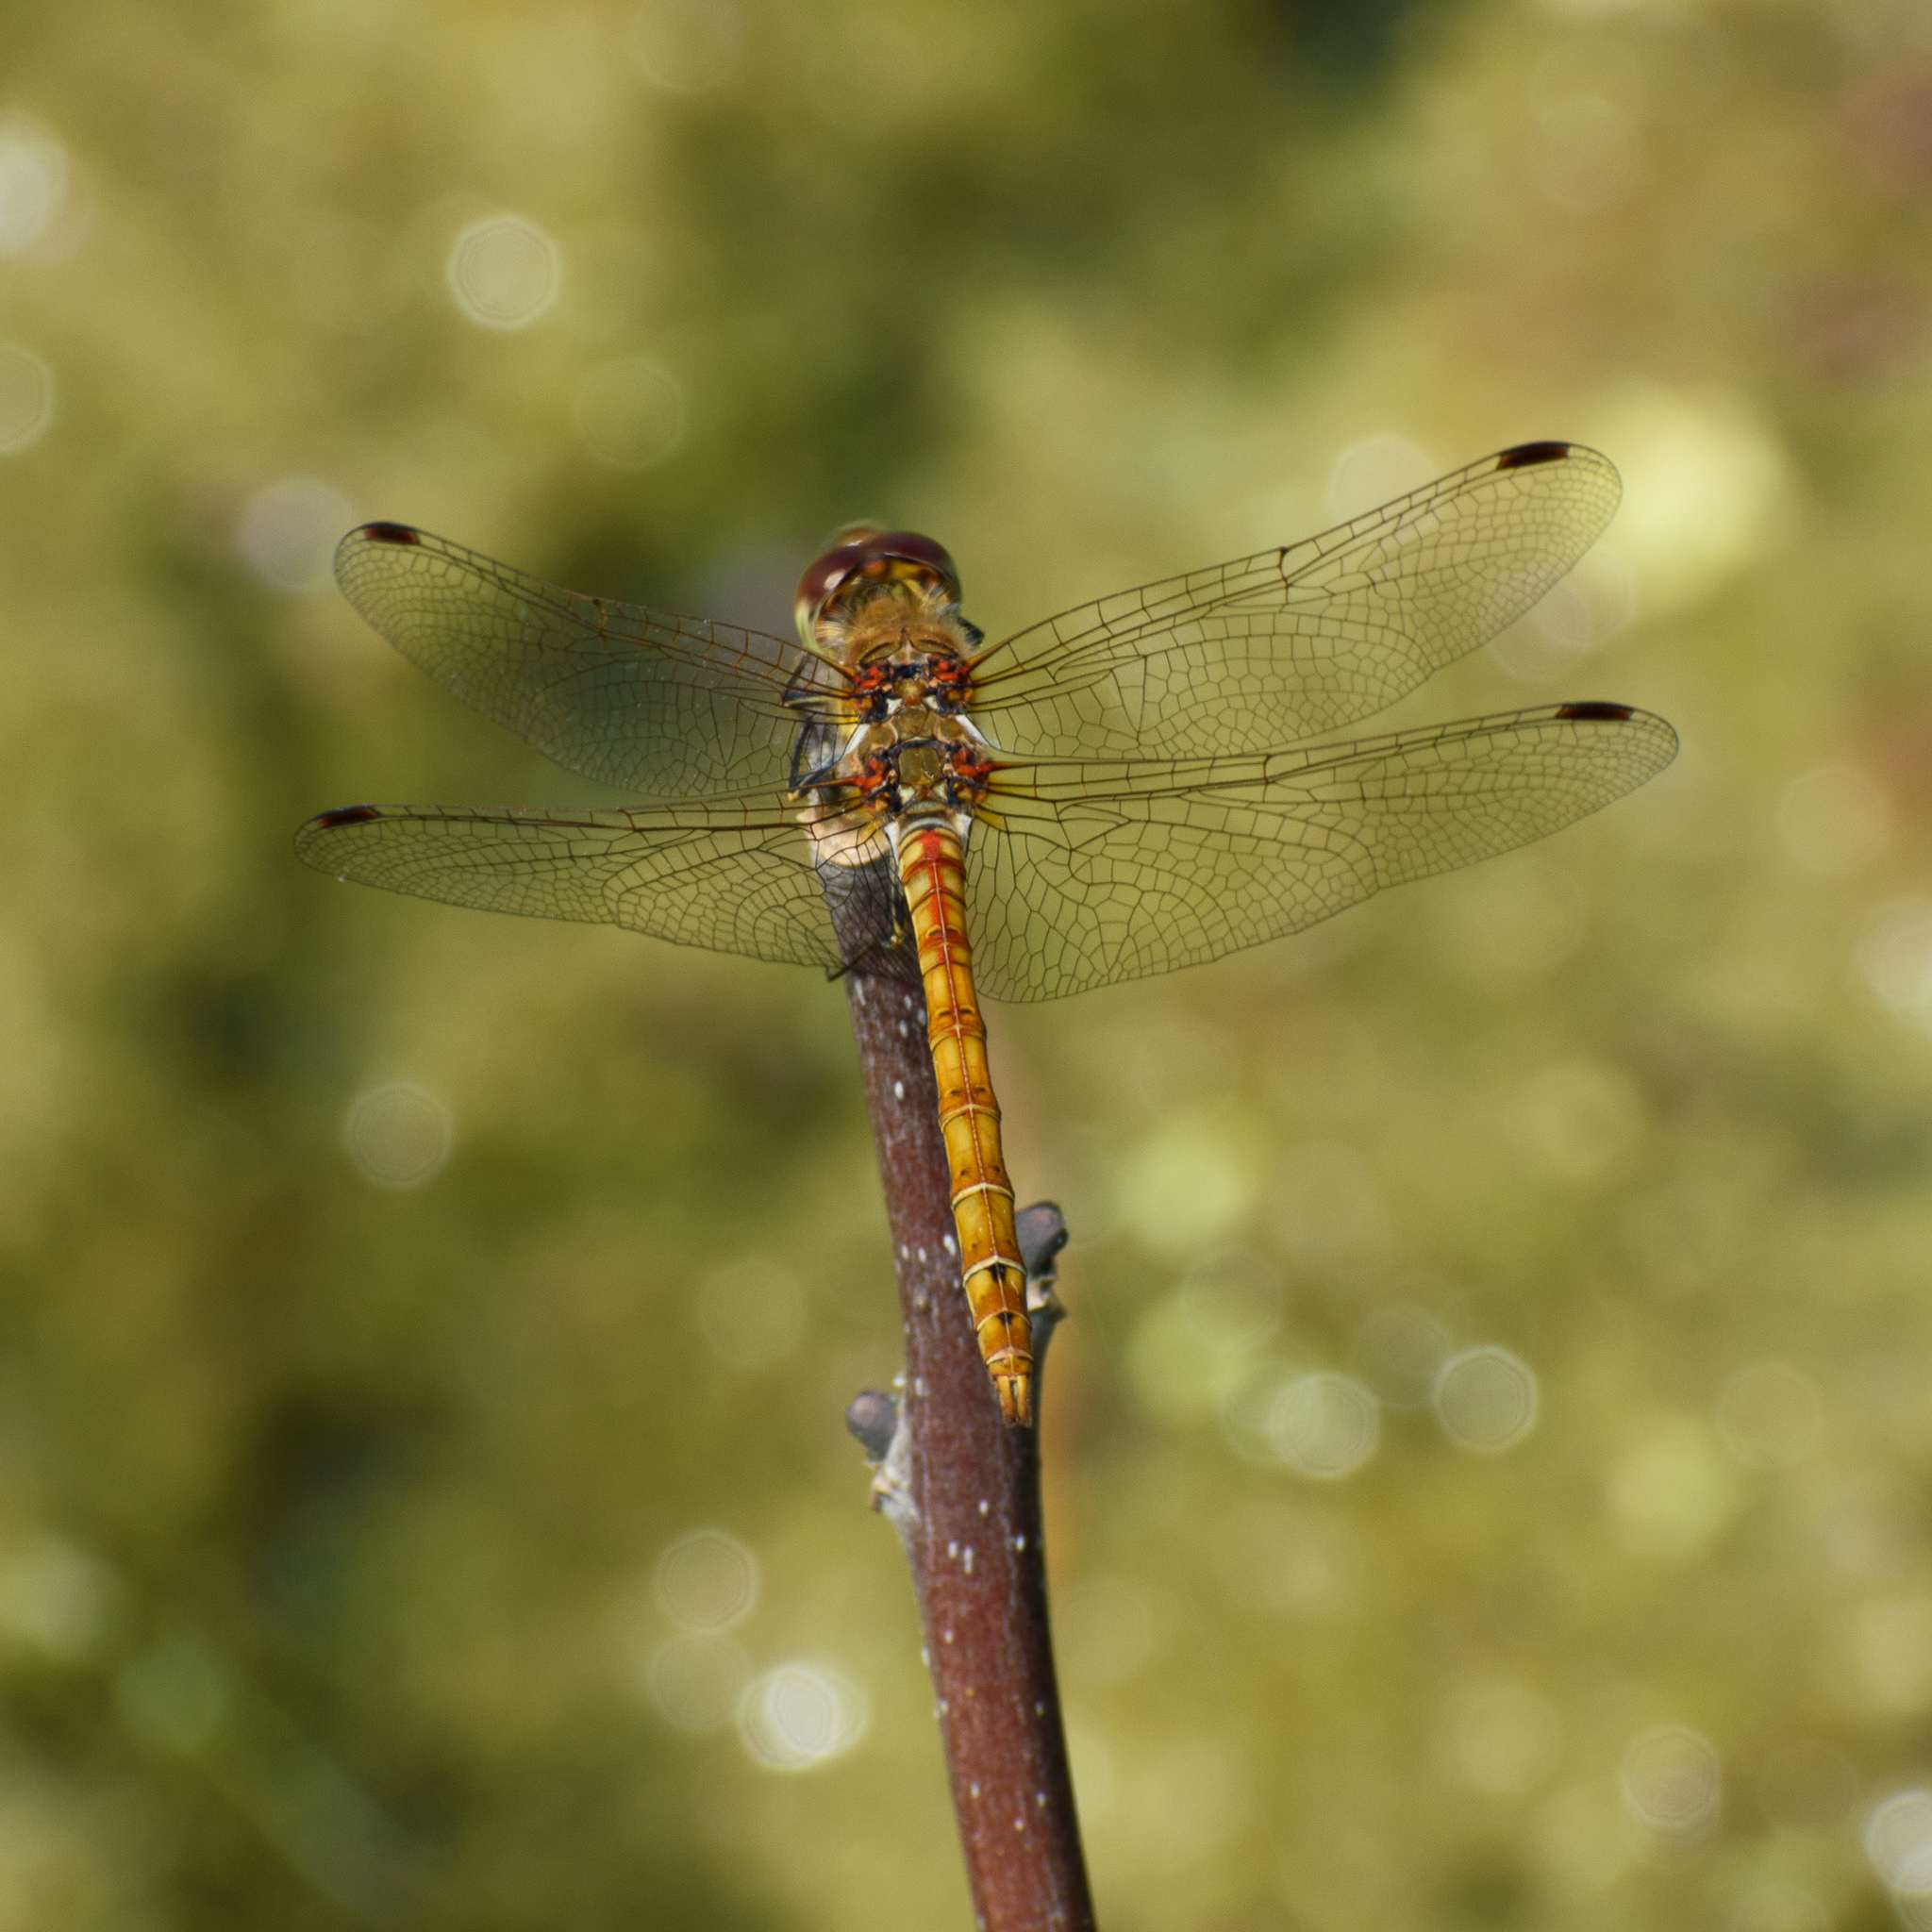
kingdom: Animalia
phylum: Arthropoda
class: Insecta
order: Odonata
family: Libellulidae
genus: Sympetrum
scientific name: Sympetrum striolatum
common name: Common darter
